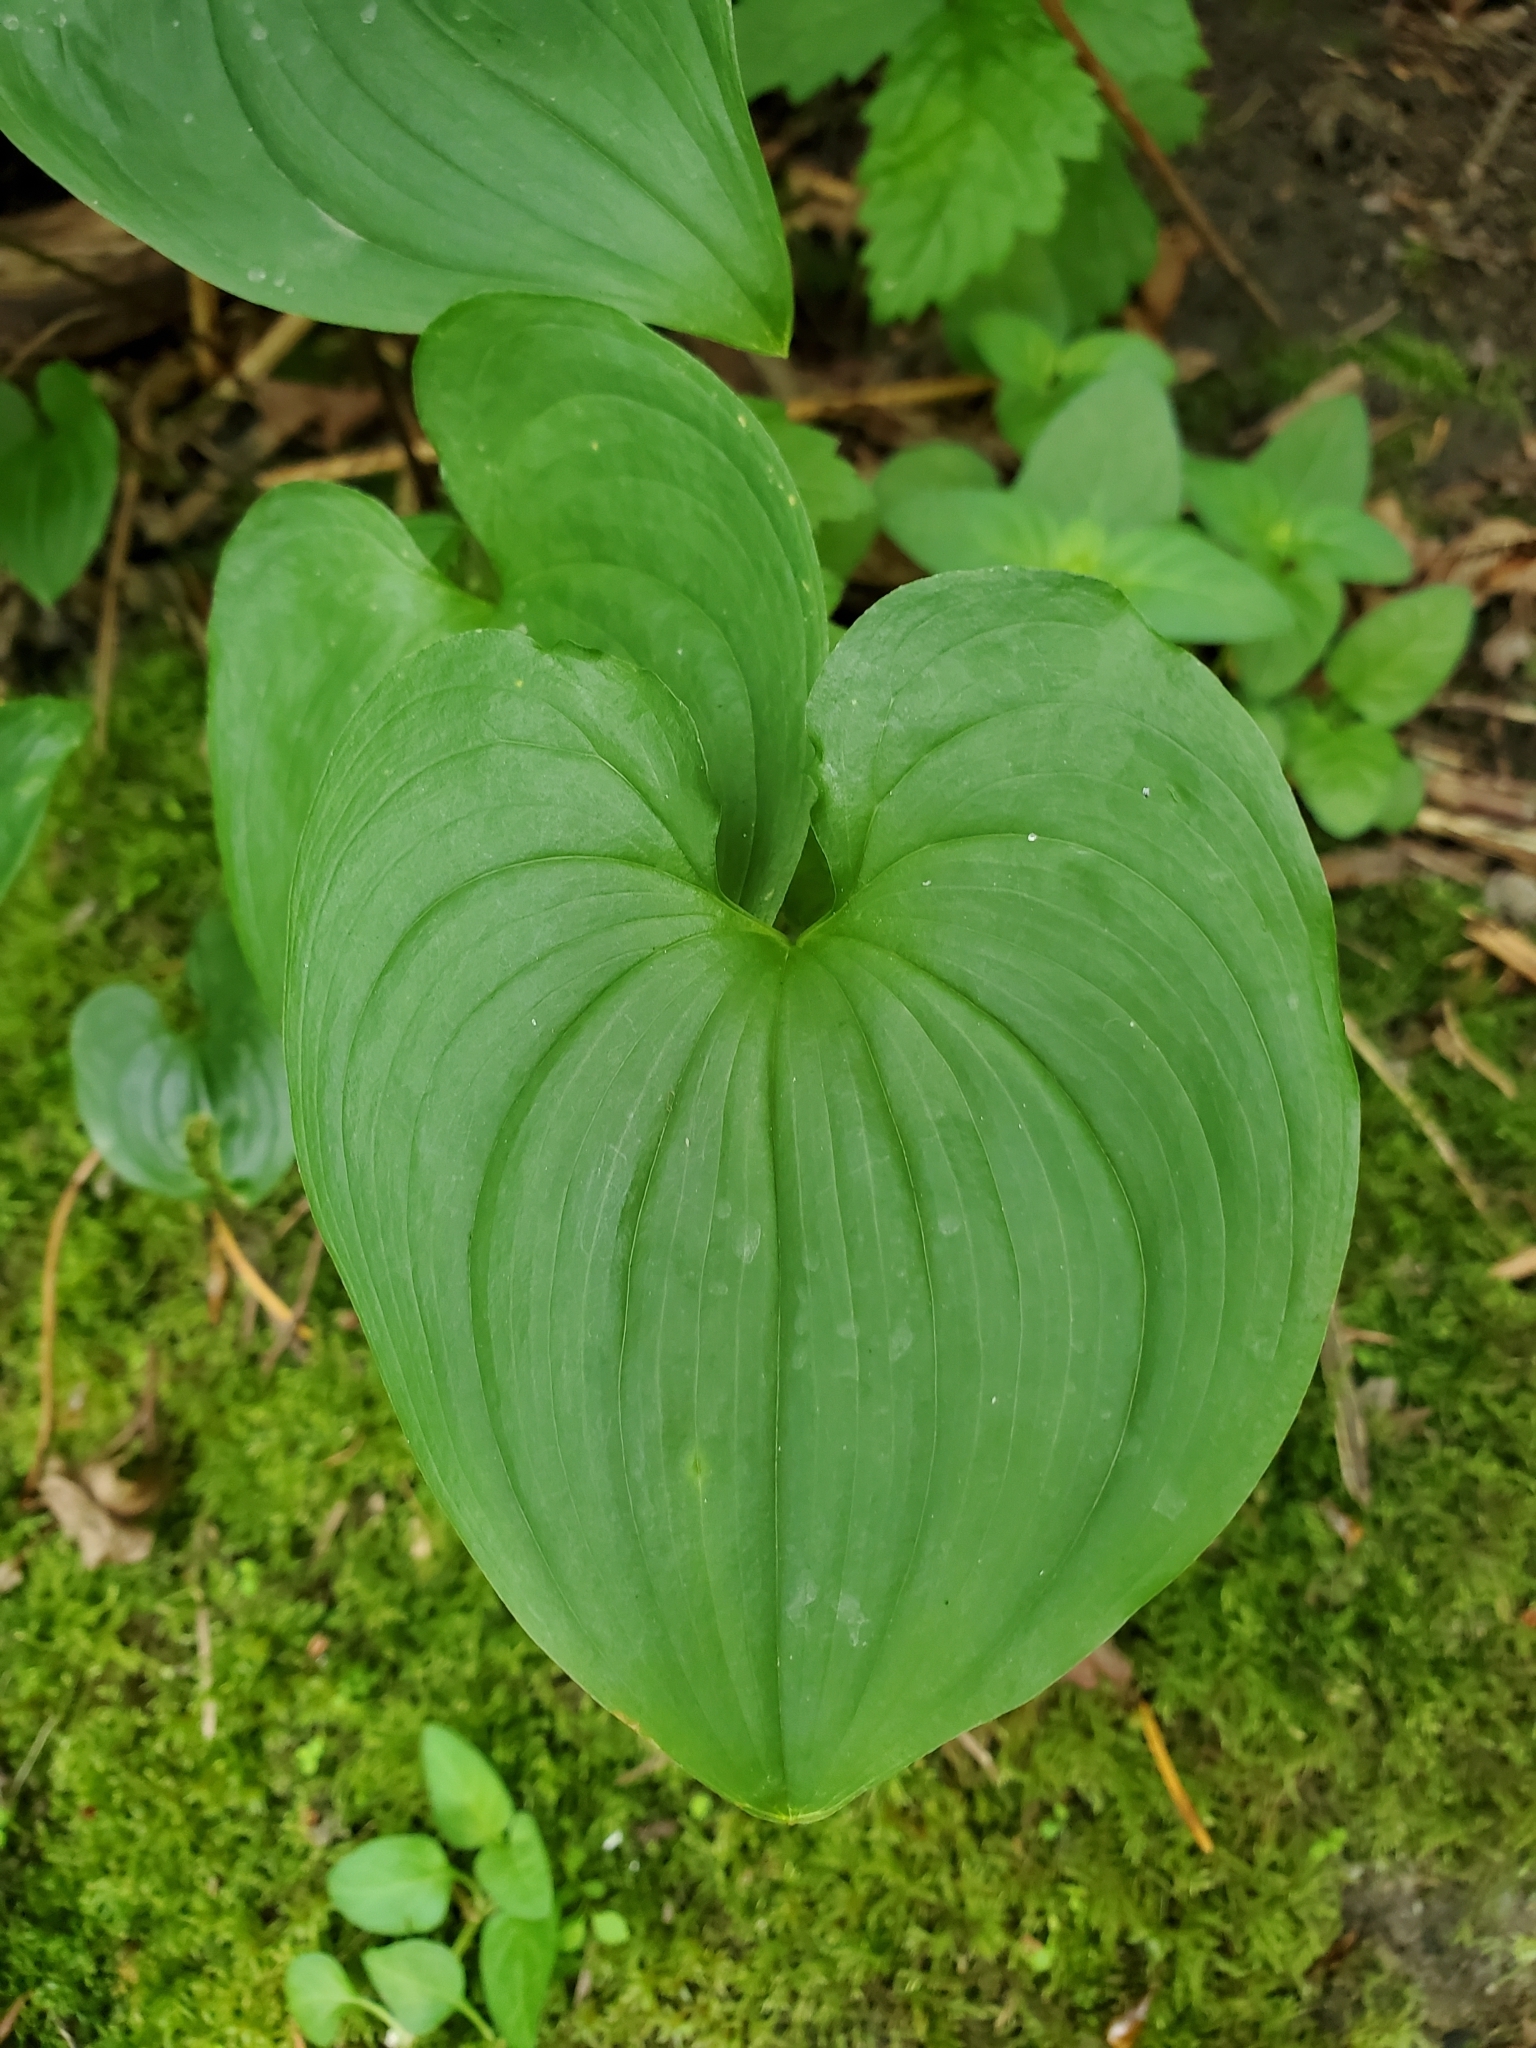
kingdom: Plantae
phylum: Tracheophyta
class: Liliopsida
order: Asparagales
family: Asparagaceae
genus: Maianthemum
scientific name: Maianthemum dilatatum
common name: False lily-of-the-valley
